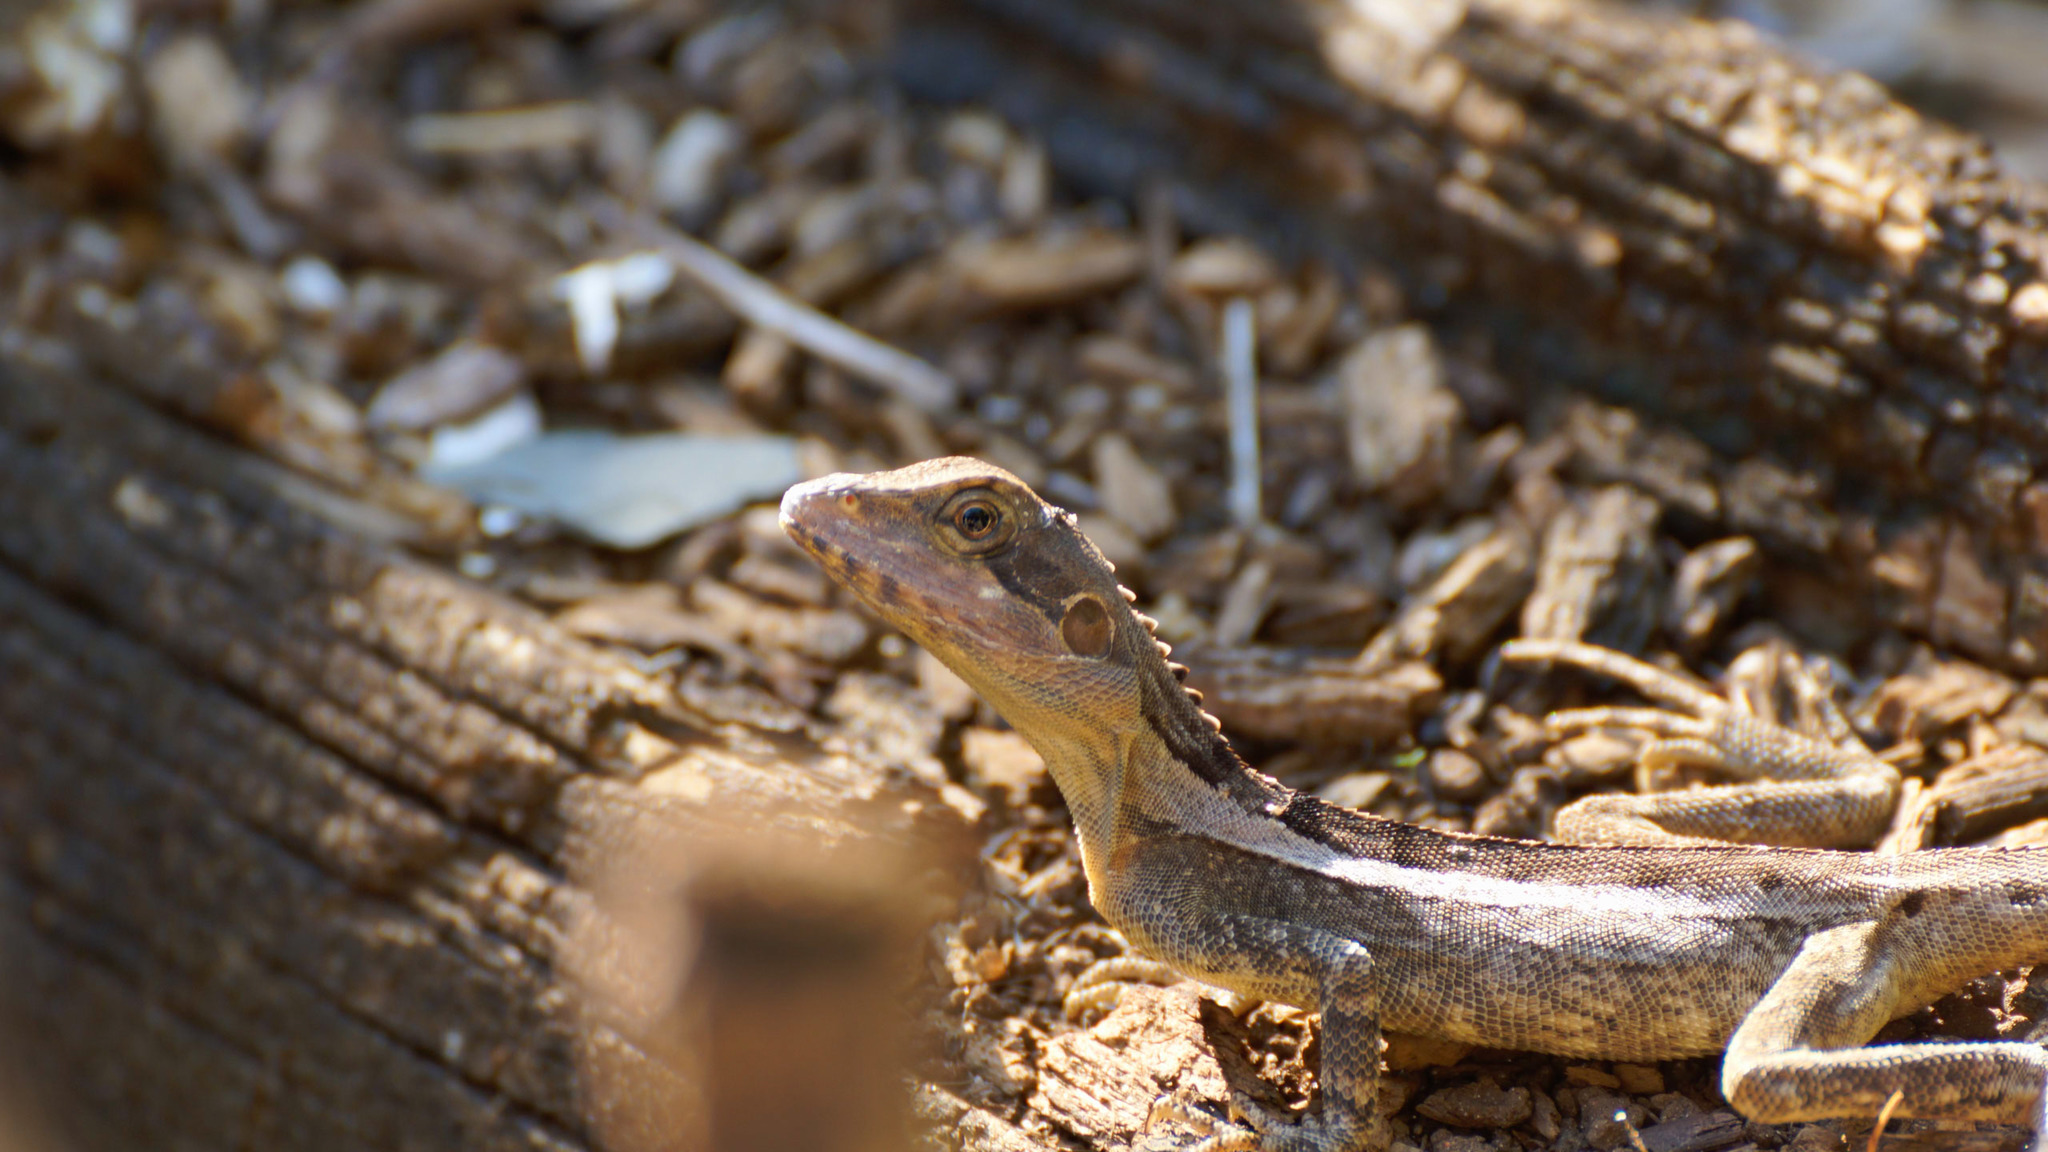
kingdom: Animalia
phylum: Chordata
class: Squamata
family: Agamidae
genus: Tropicagama
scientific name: Tropicagama temporalis
